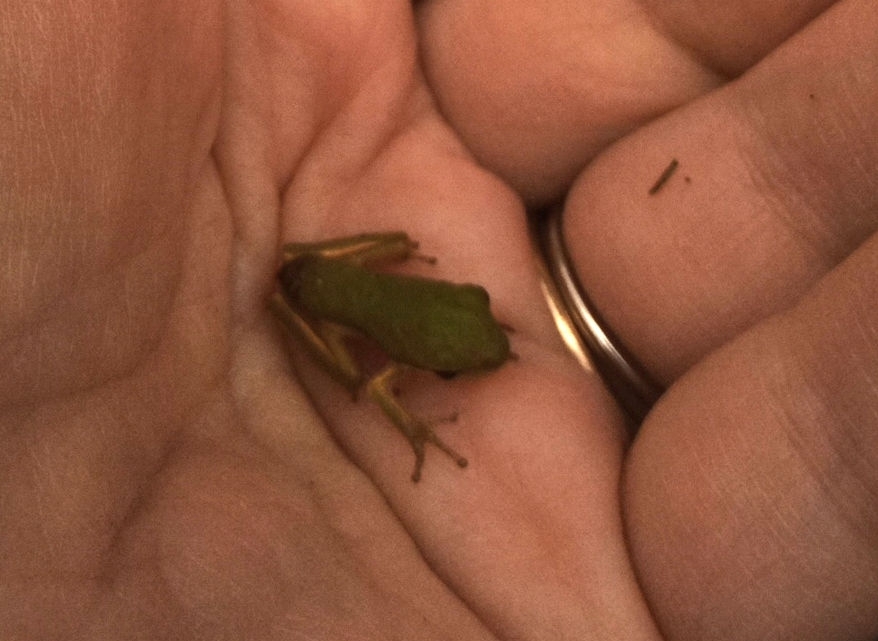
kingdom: Animalia
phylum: Chordata
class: Amphibia
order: Anura
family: Hylidae
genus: Dryophytes
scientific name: Dryophytes cinereus
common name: Green treefrog
